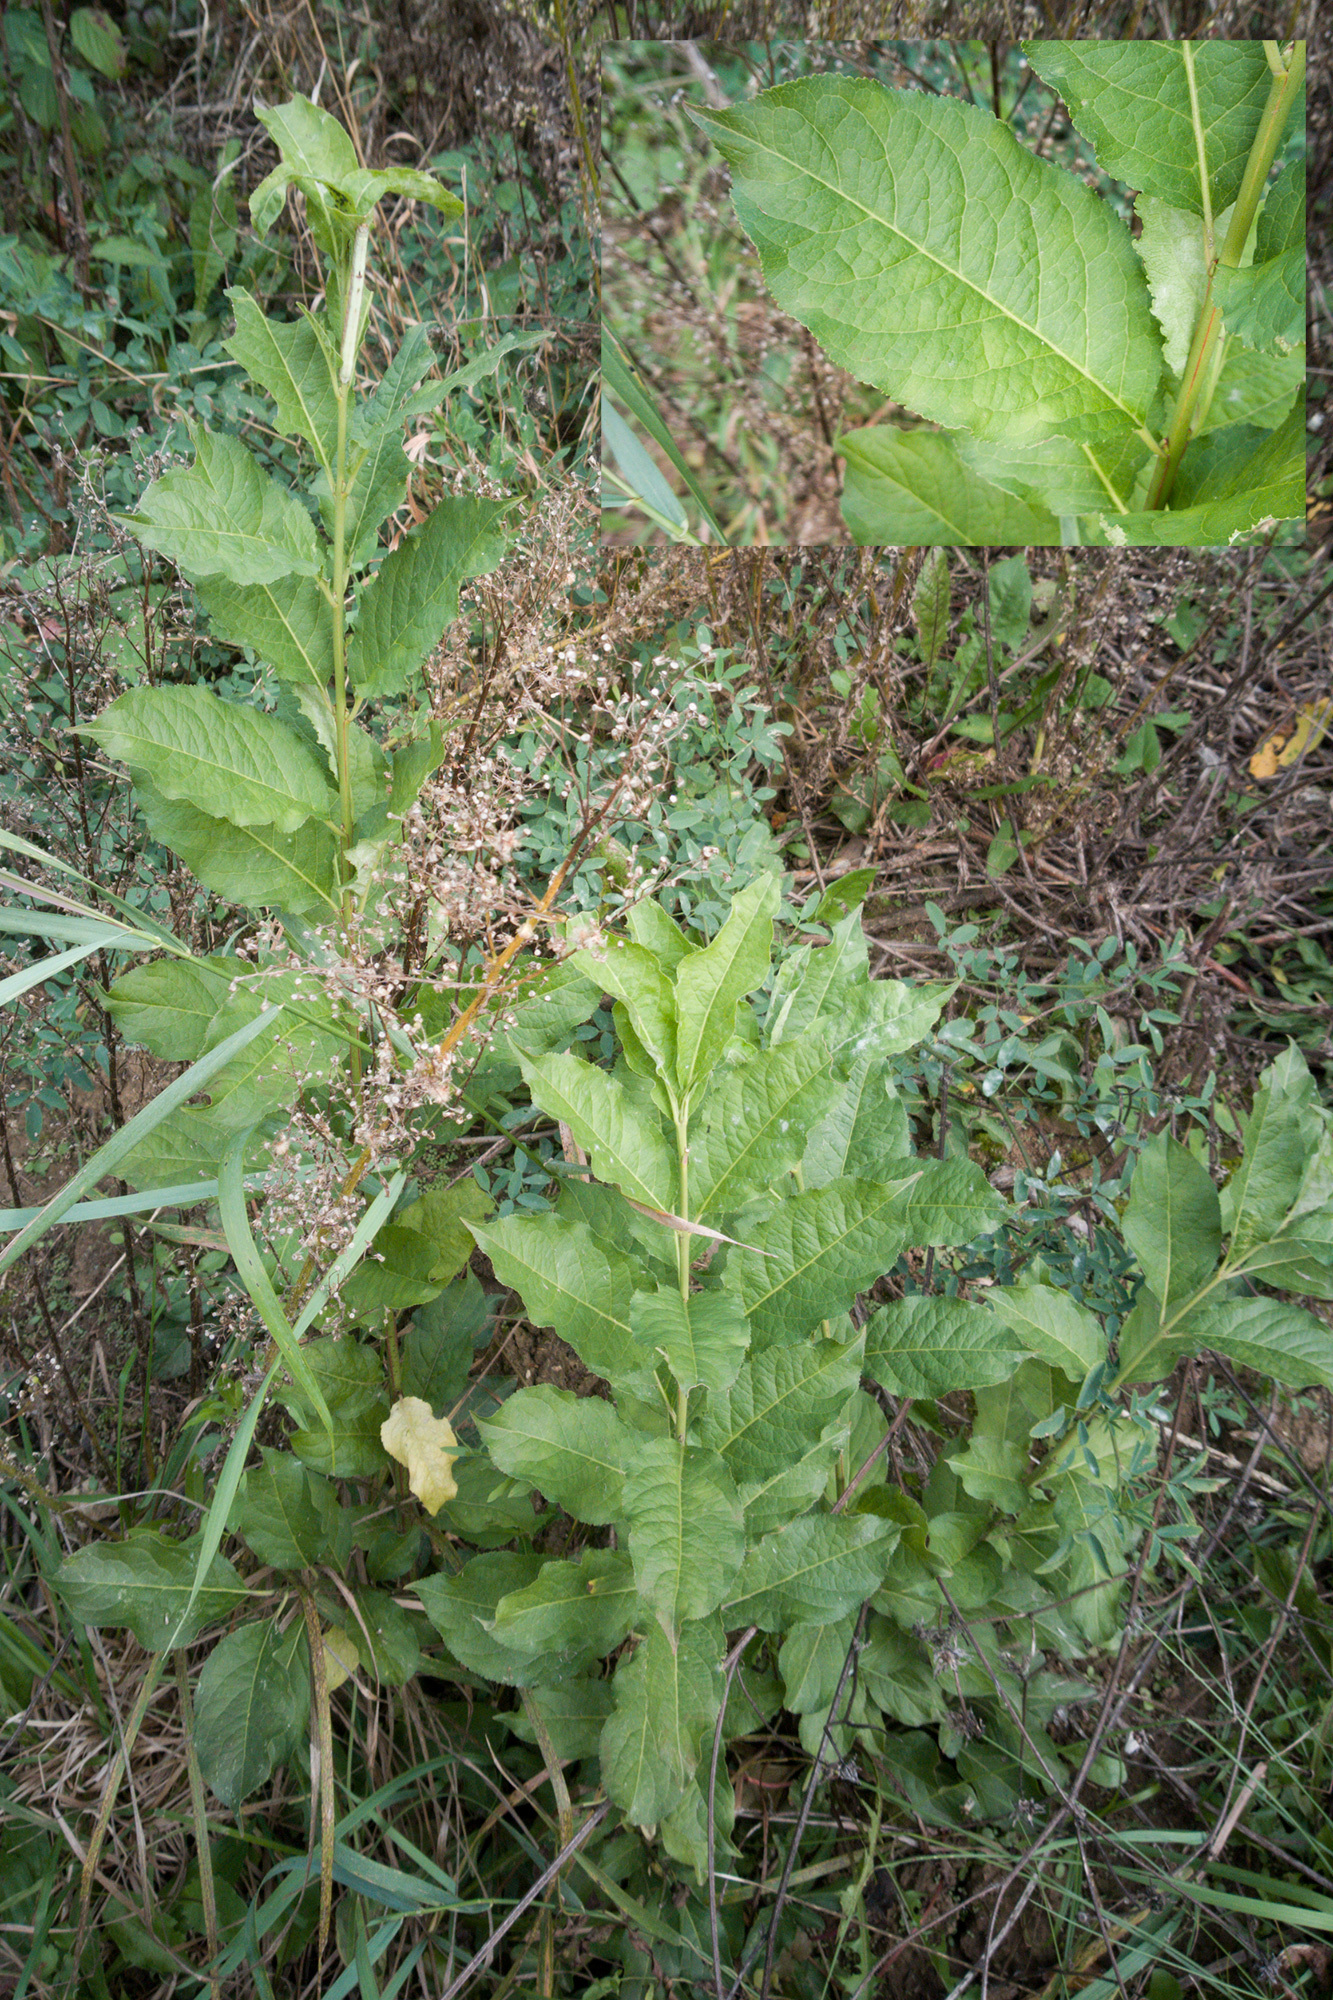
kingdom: Plantae
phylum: Tracheophyta
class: Magnoliopsida
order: Celastrales
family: Celastraceae
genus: Euonymus
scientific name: Euonymus europaeus
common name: Spindle
